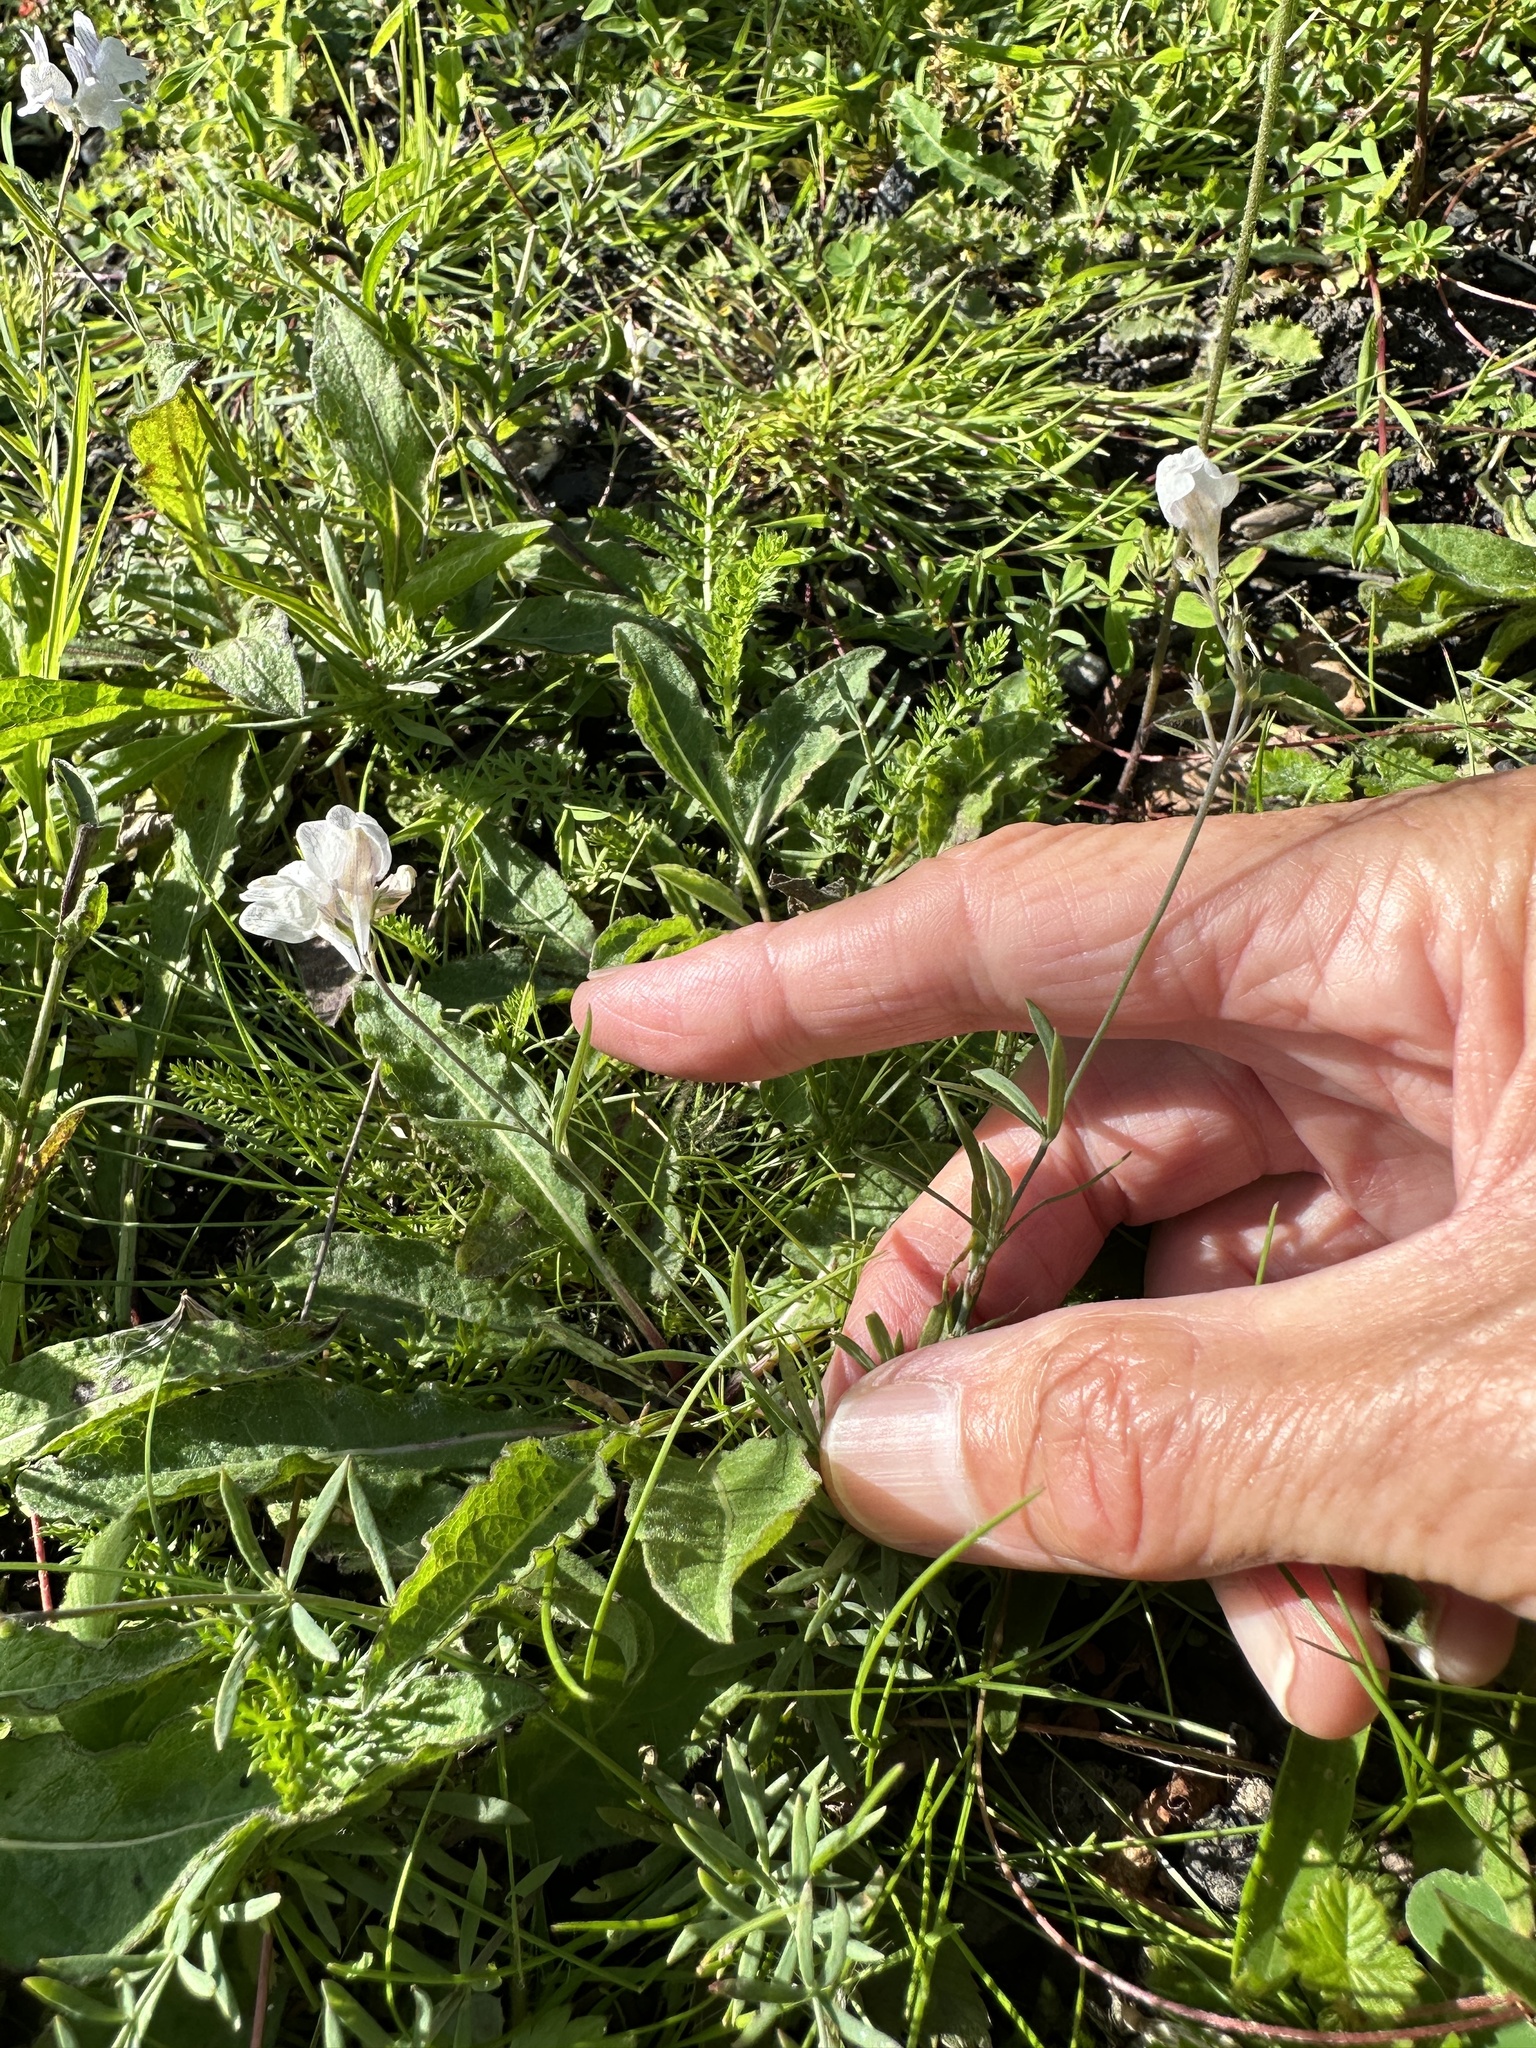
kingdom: Plantae
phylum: Tracheophyta
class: Magnoliopsida
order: Lamiales
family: Plantaginaceae
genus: Linaria
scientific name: Linaria repens
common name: Pale toadflax
